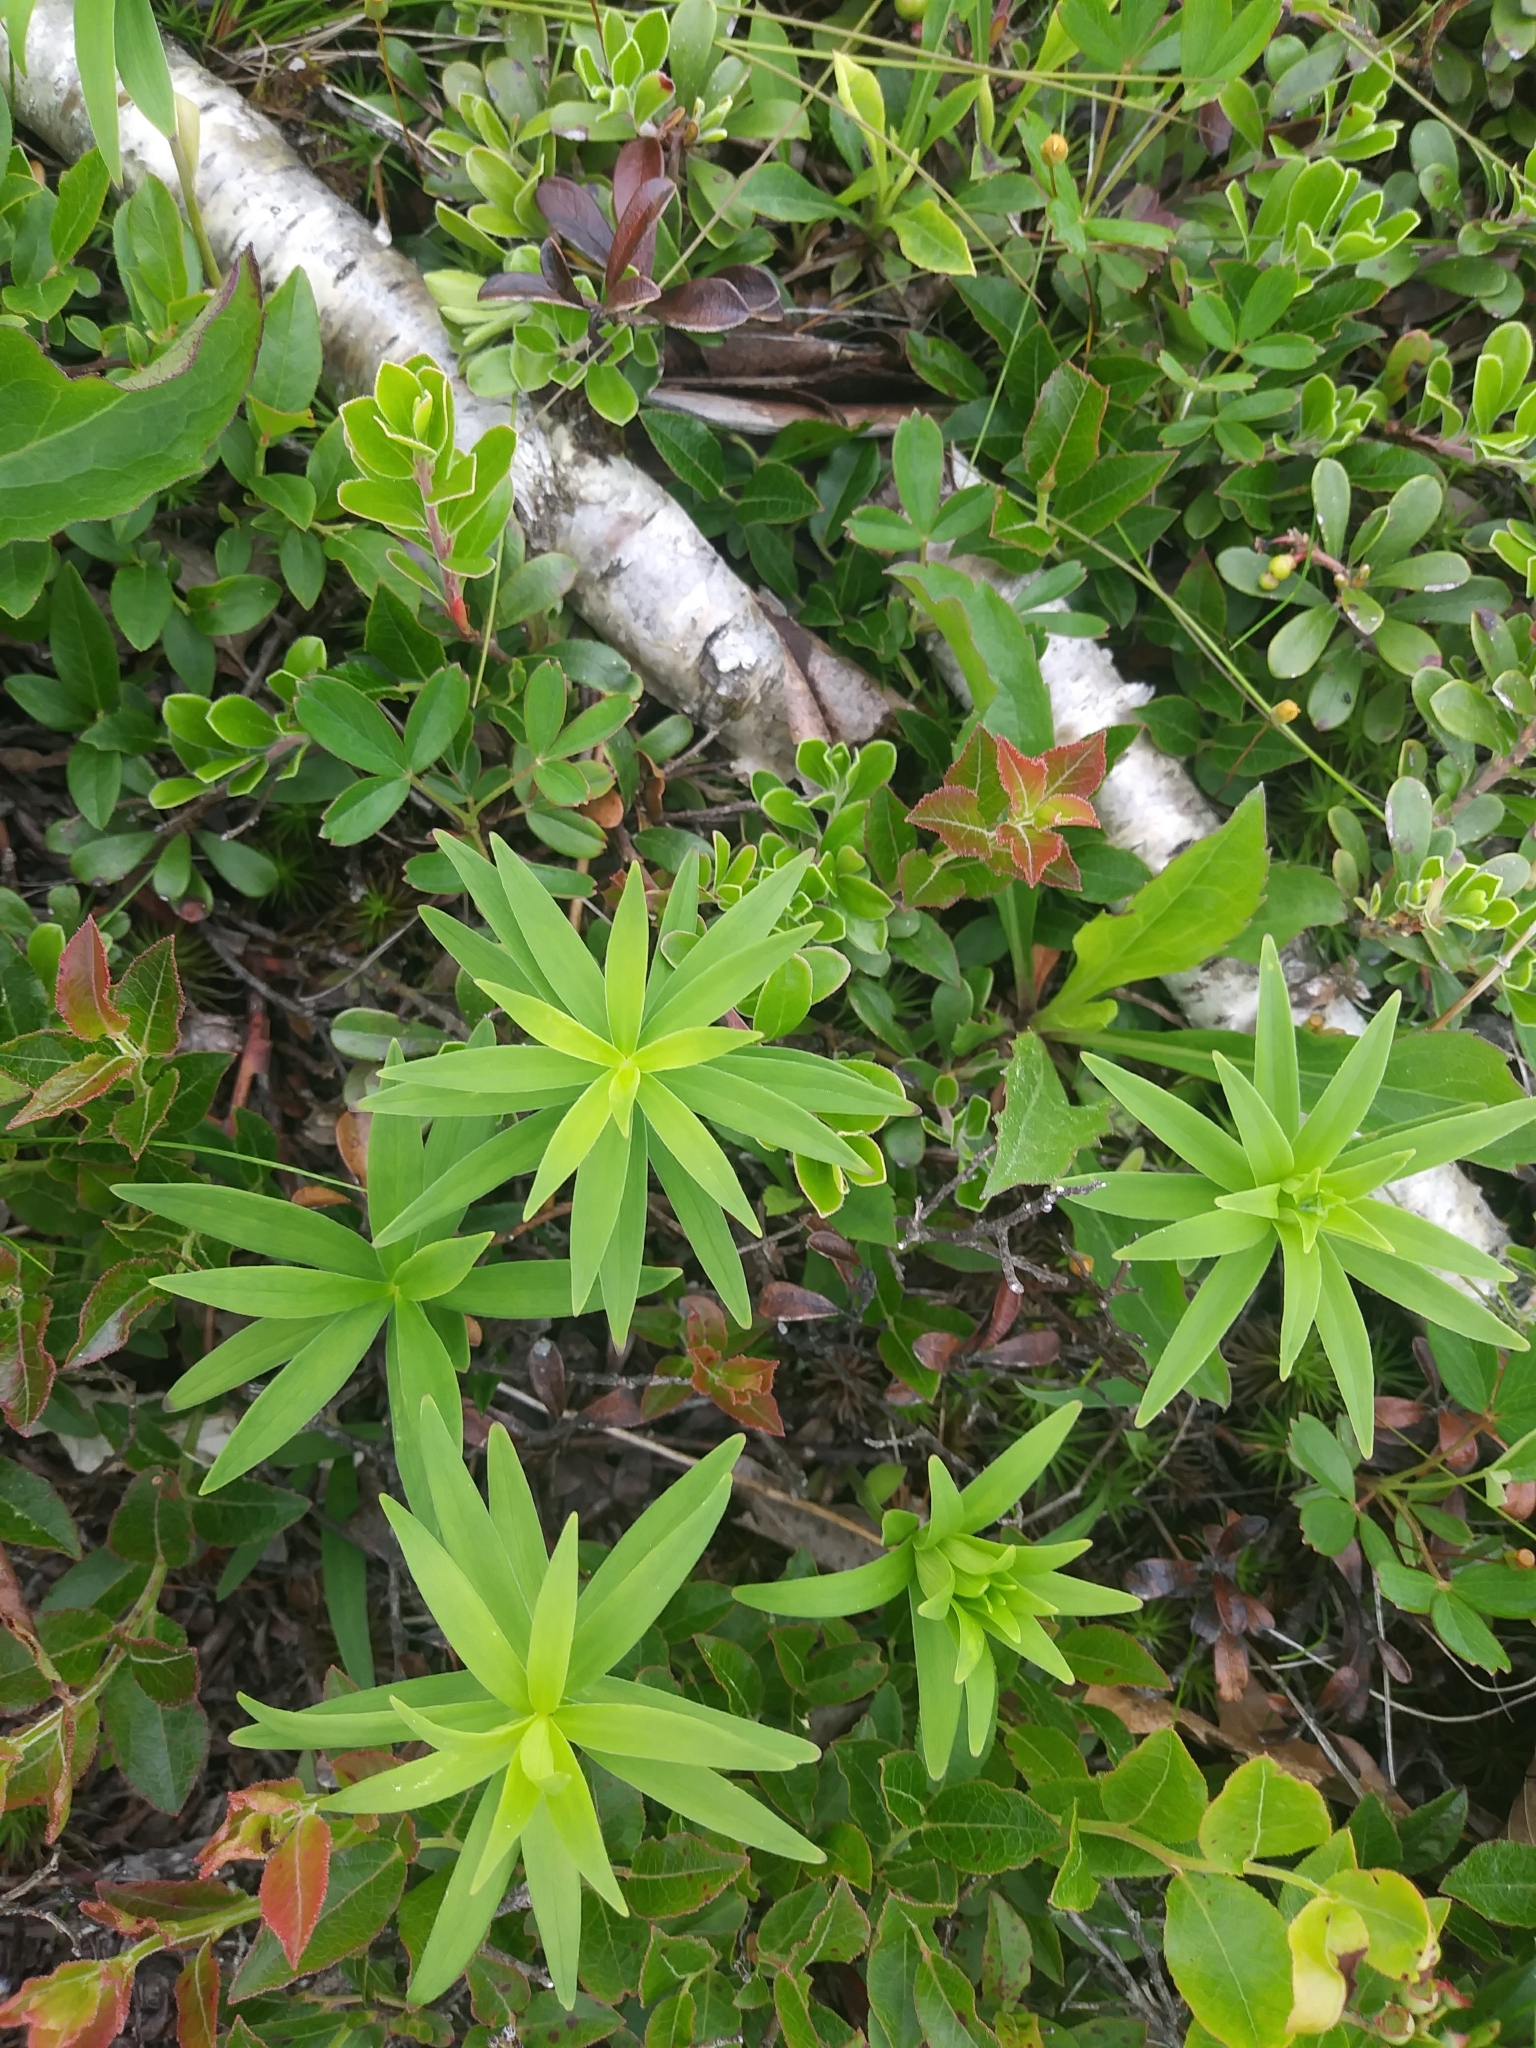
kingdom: Plantae
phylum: Tracheophyta
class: Liliopsida
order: Liliales
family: Liliaceae
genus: Lilium
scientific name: Lilium philadelphicum
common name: Red lily
